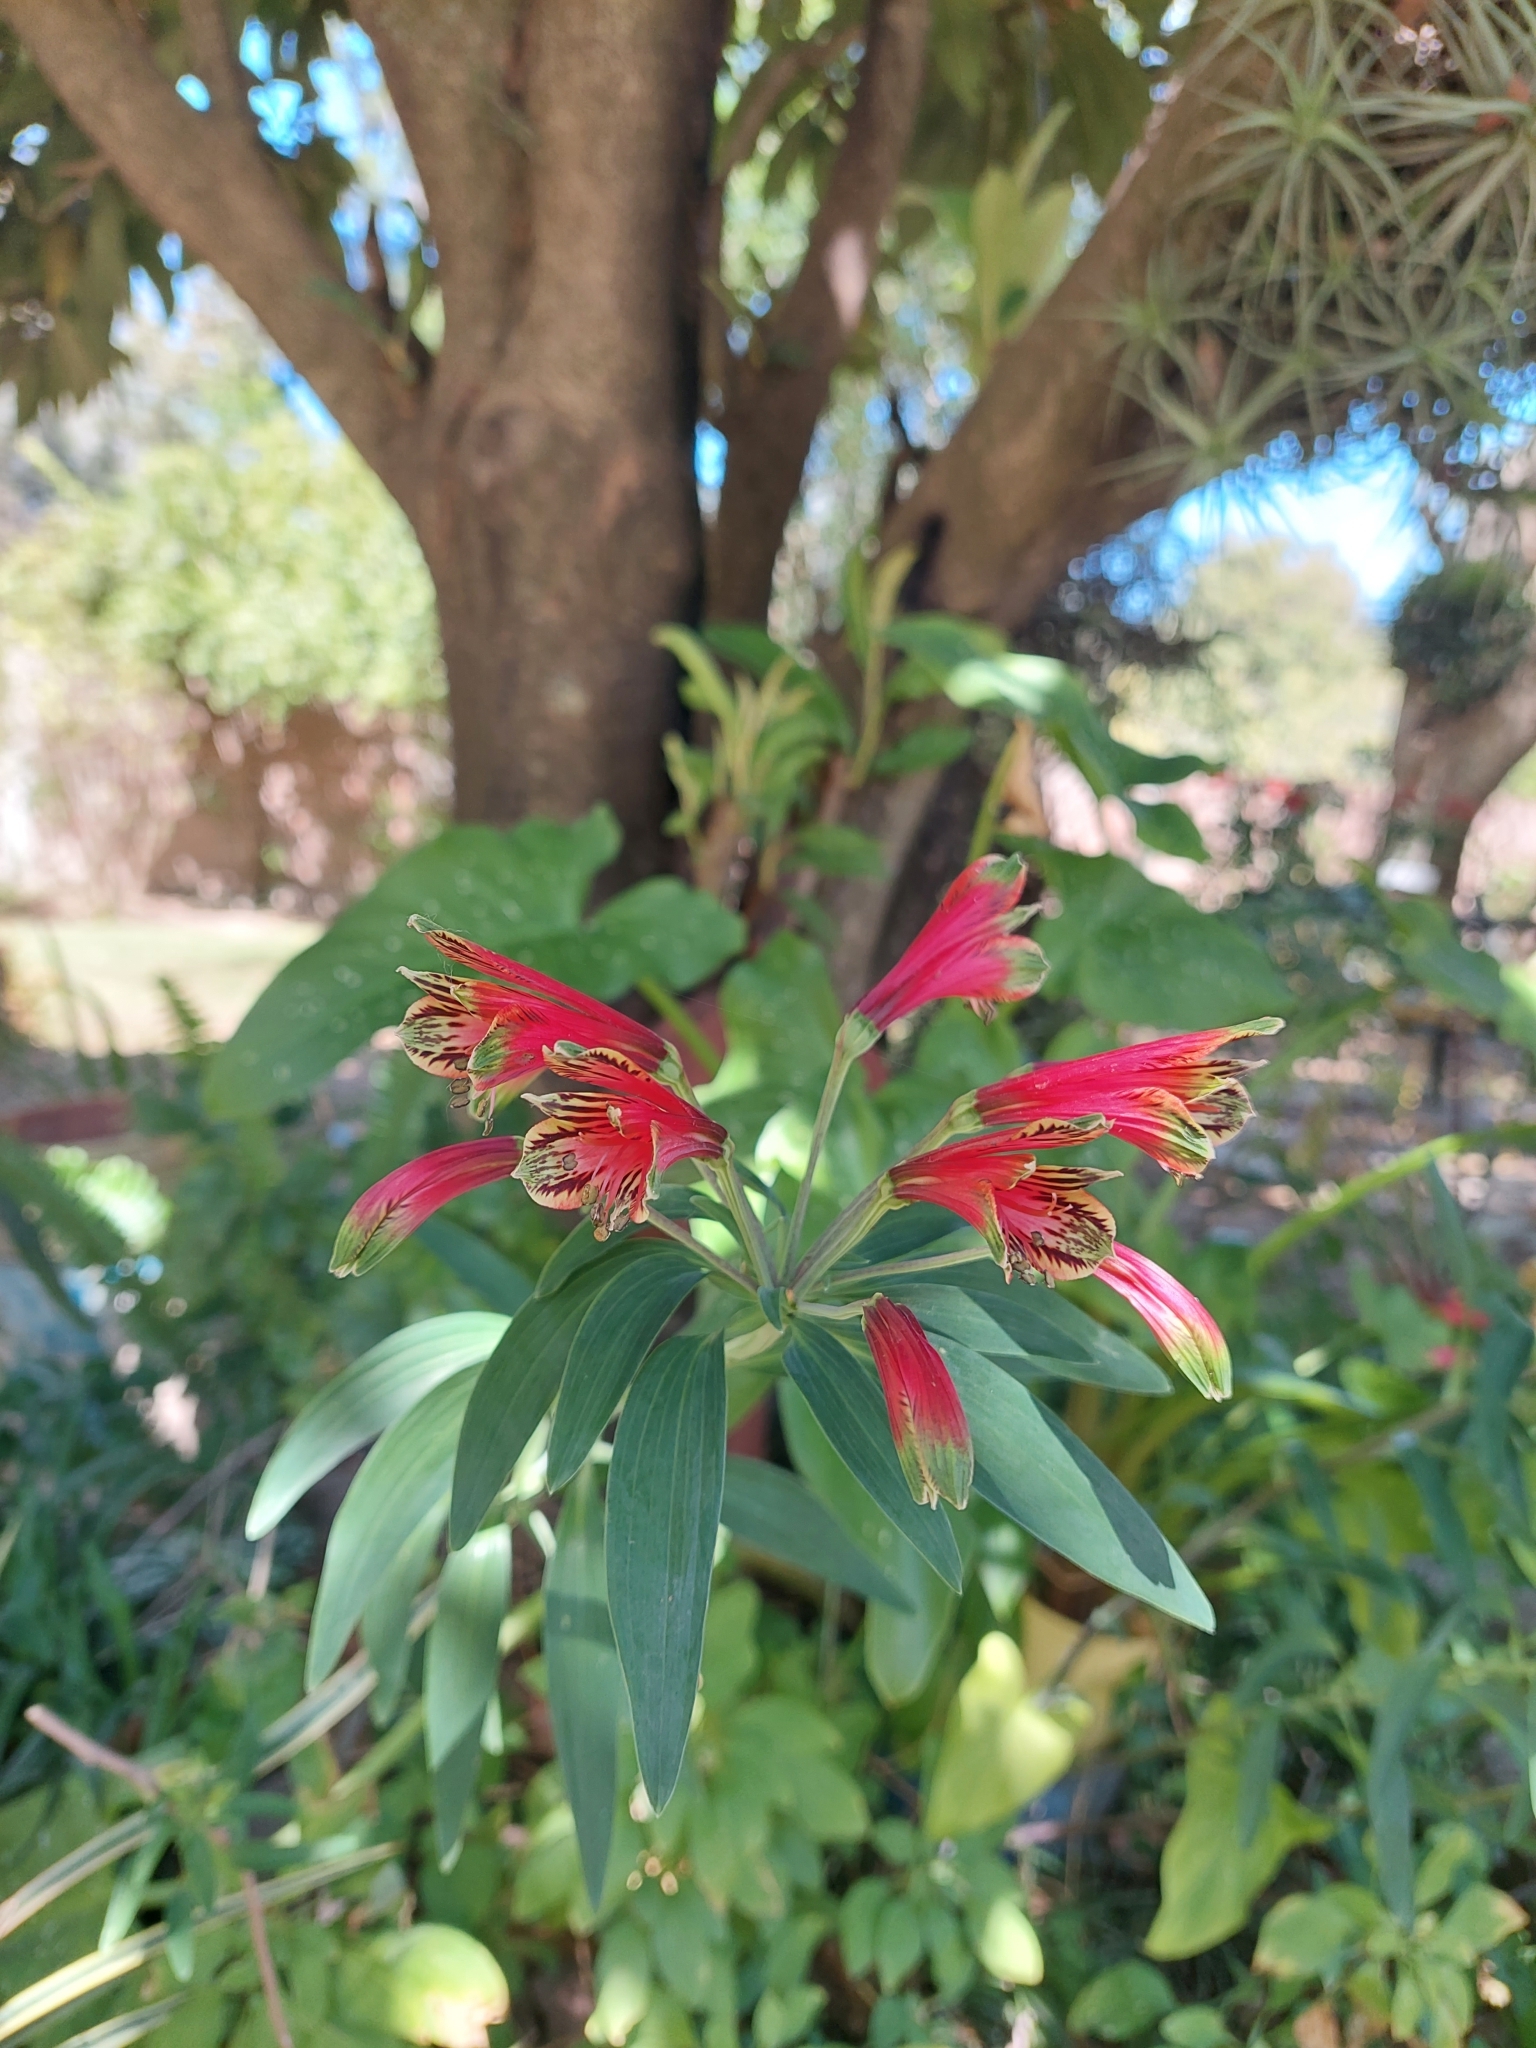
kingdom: Plantae
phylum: Tracheophyta
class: Liliopsida
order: Liliales
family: Alstroemeriaceae
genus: Alstroemeria
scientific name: Alstroemeria psittacina
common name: Peruvian-lily
